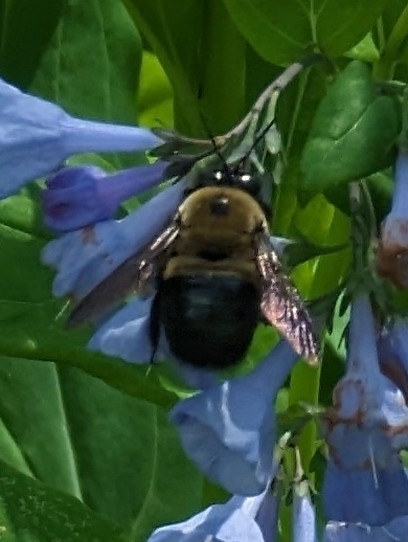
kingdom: Animalia
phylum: Arthropoda
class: Insecta
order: Hymenoptera
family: Apidae
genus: Xylocopa
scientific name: Xylocopa virginica
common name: Carpenter bee
